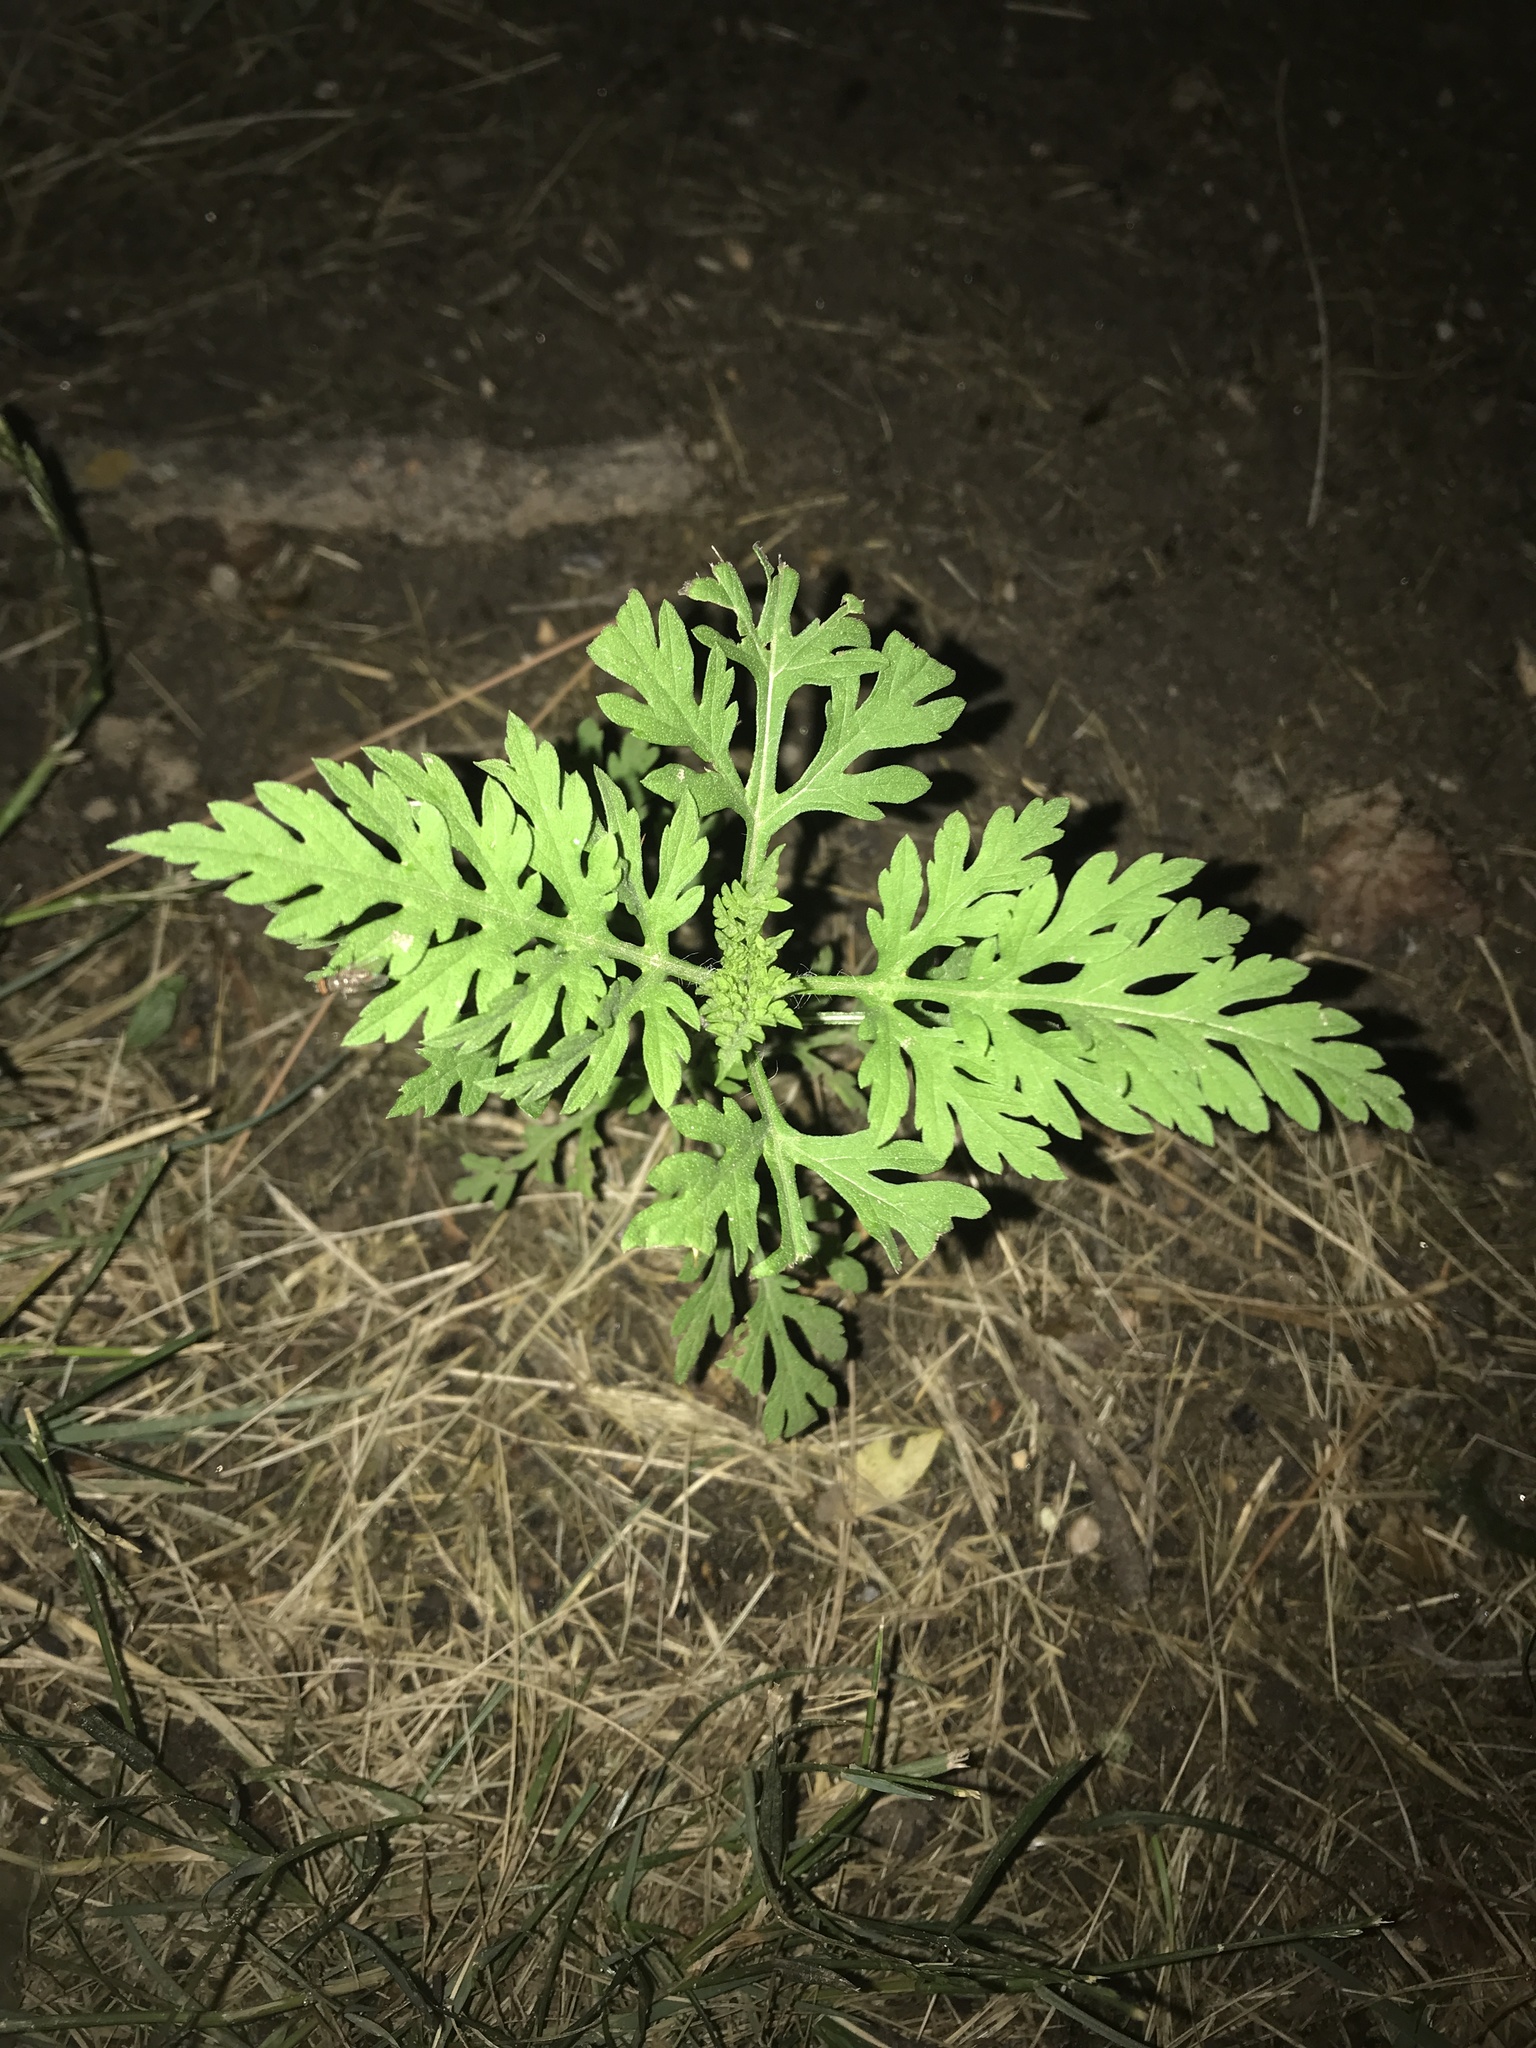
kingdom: Plantae
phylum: Tracheophyta
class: Magnoliopsida
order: Asterales
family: Asteraceae
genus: Ambrosia
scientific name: Ambrosia artemisiifolia
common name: Annual ragweed
